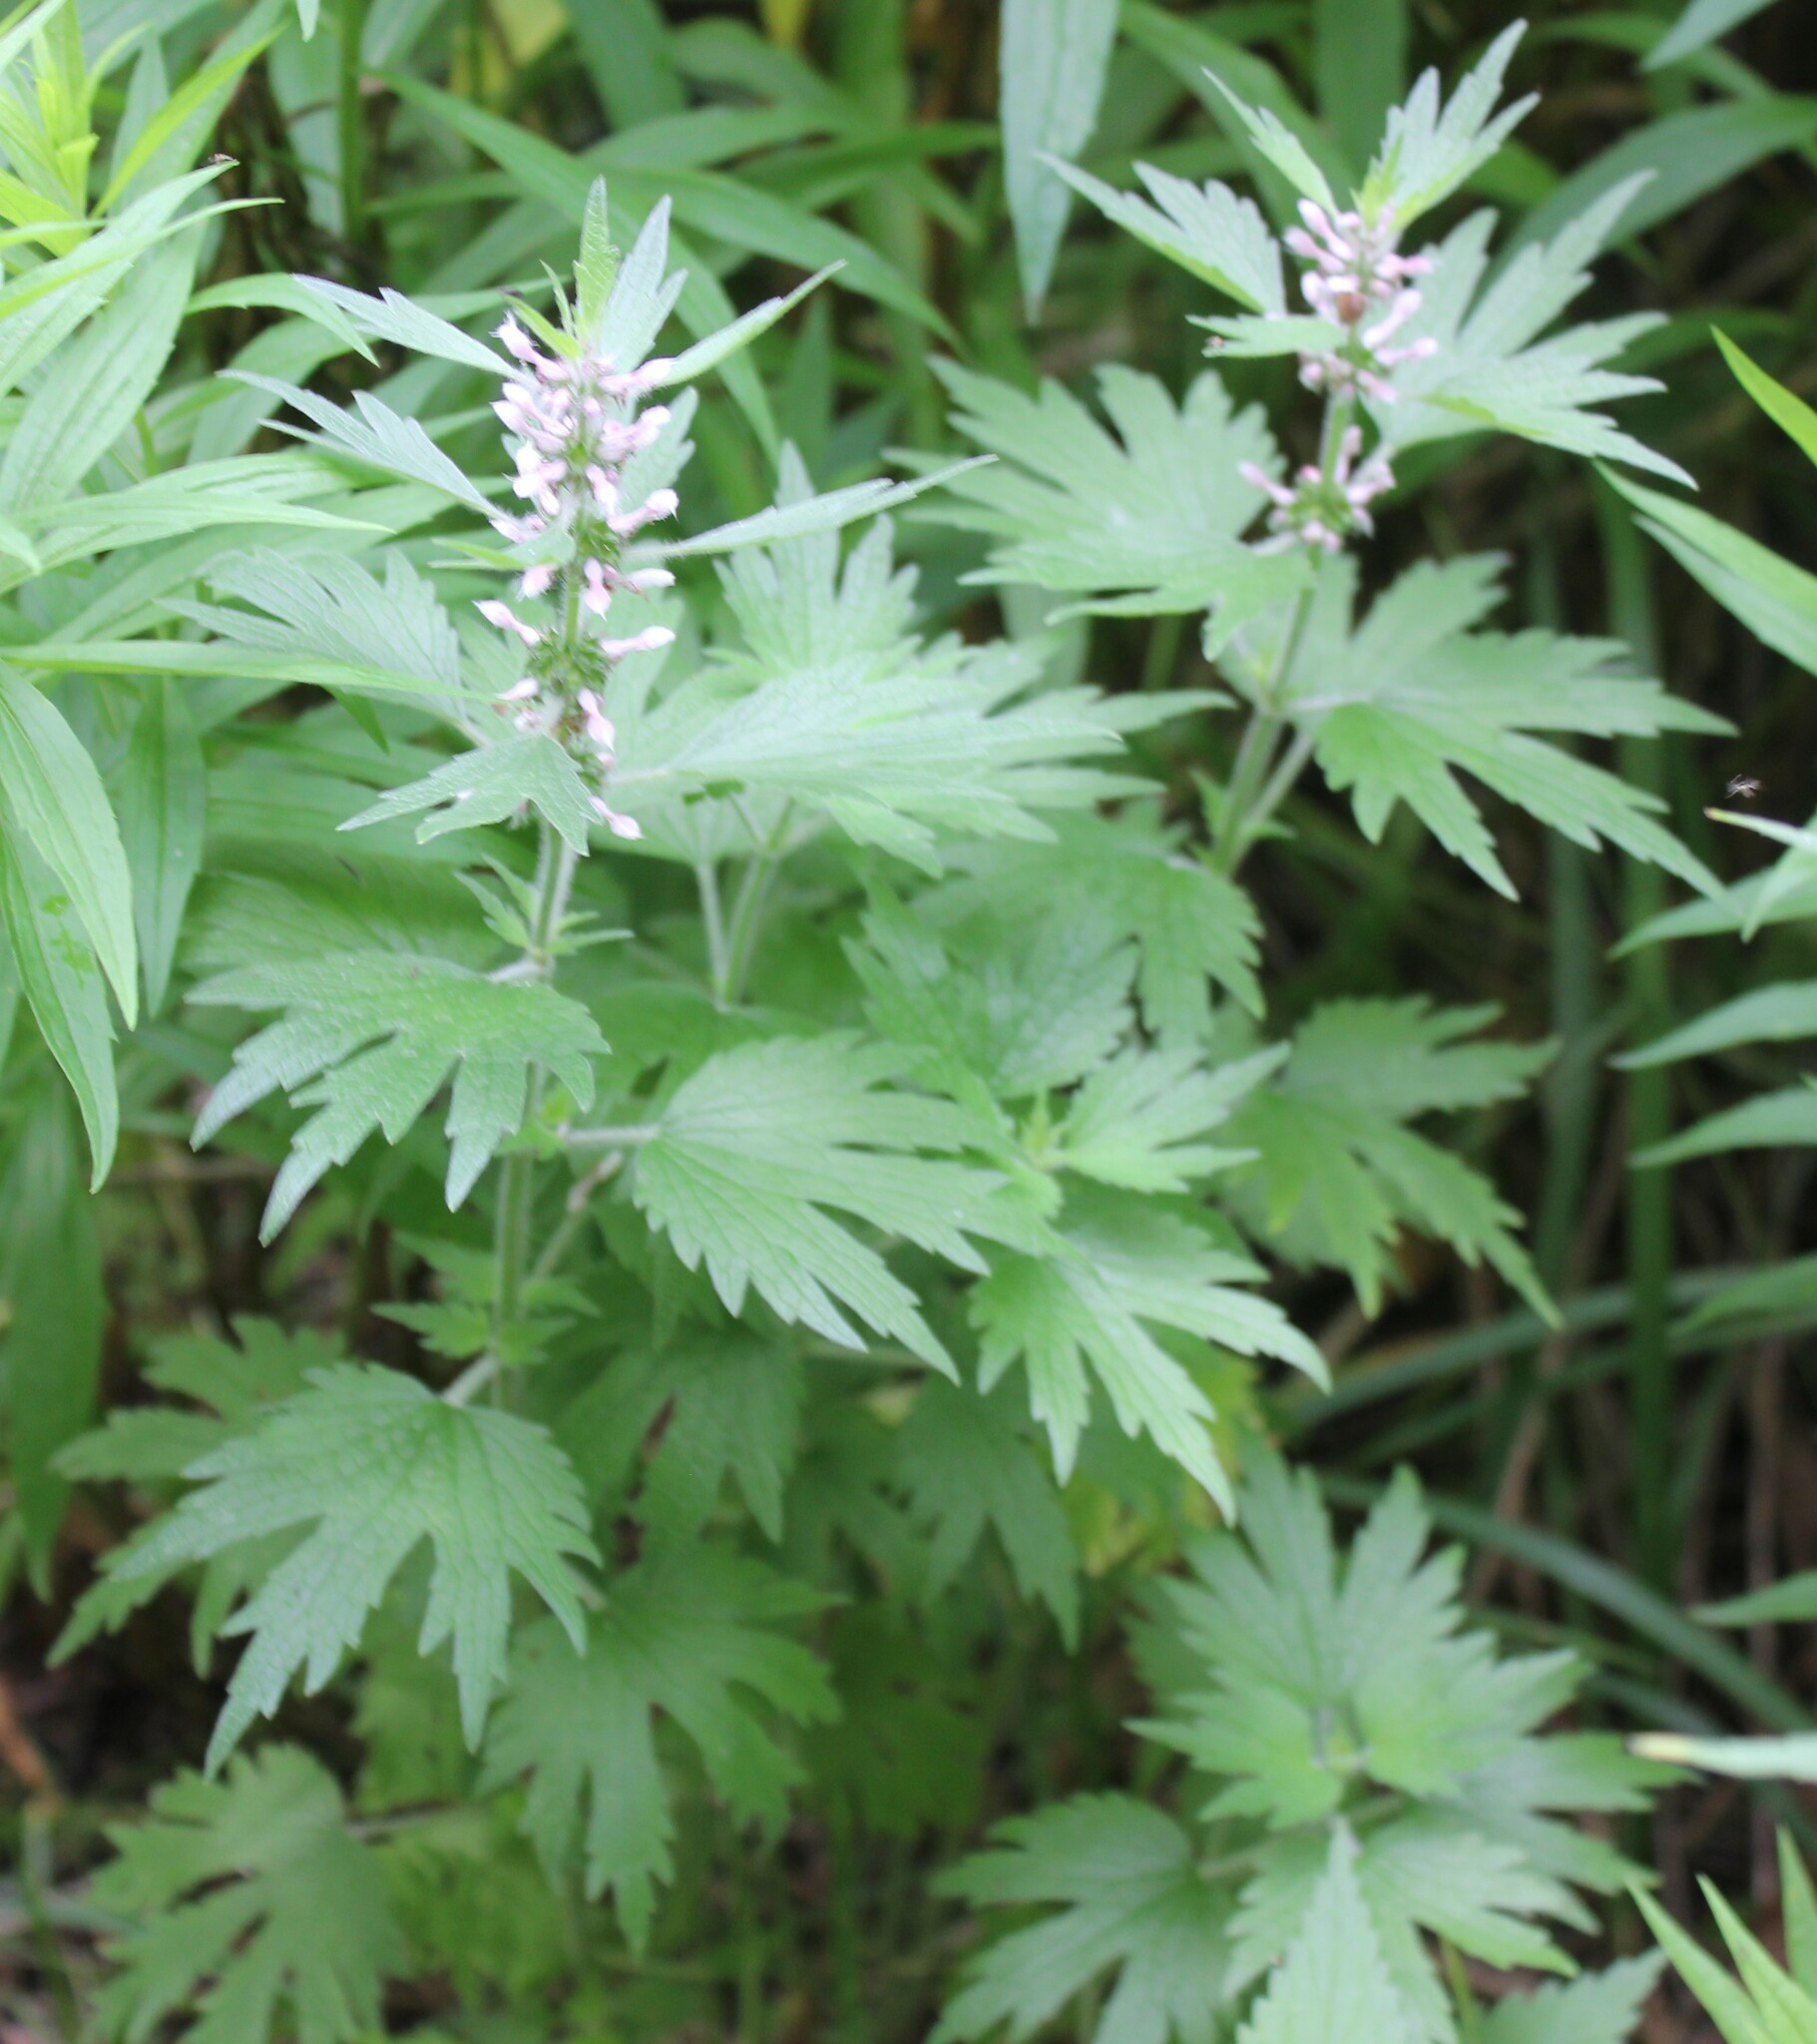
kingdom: Plantae
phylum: Tracheophyta
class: Magnoliopsida
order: Lamiales
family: Lamiaceae
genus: Leonurus
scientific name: Leonurus quinquelobatus
